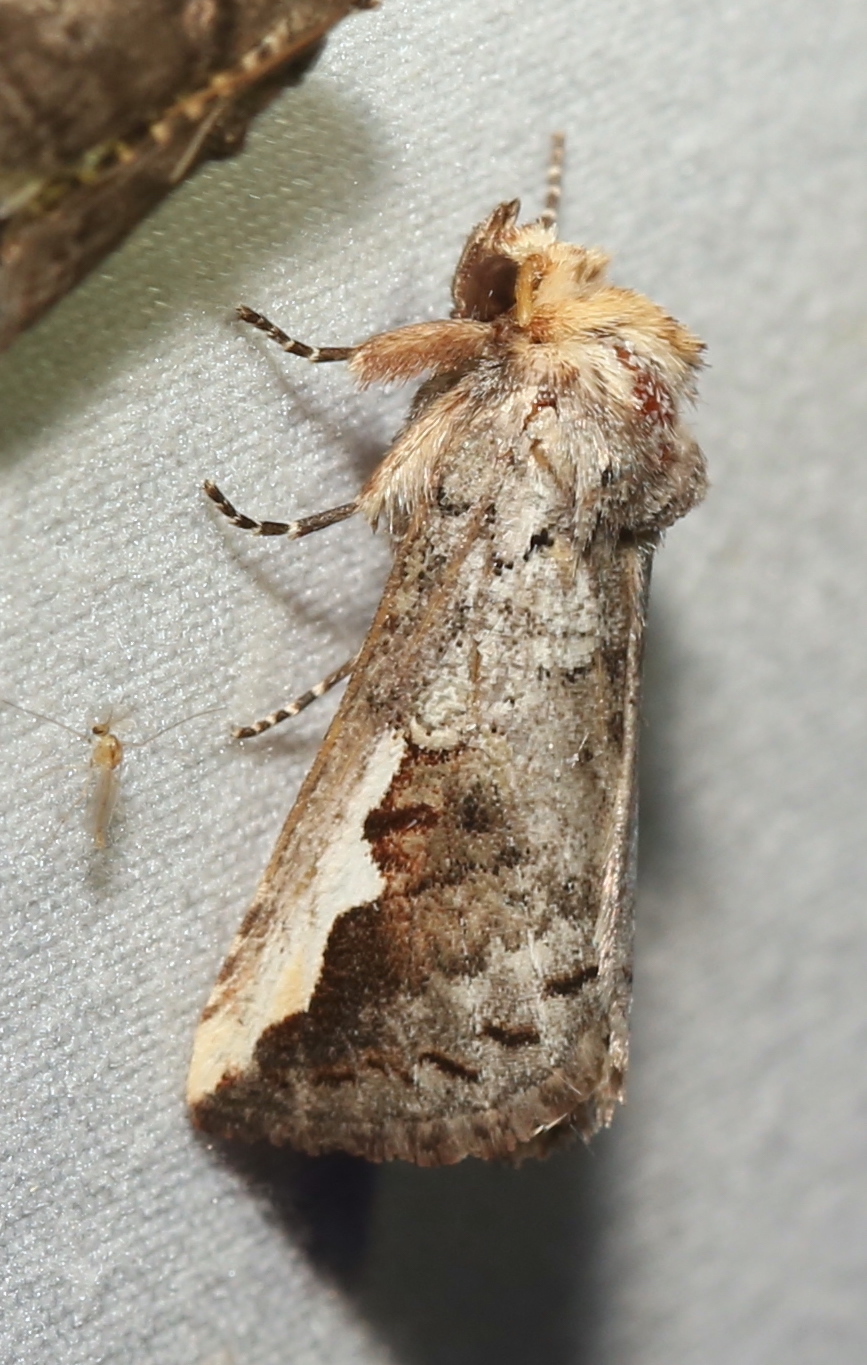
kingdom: Animalia
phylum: Arthropoda
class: Insecta
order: Lepidoptera
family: Notodontidae
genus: Symmerista
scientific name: Symmerista albifrons
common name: White-headed prominent
